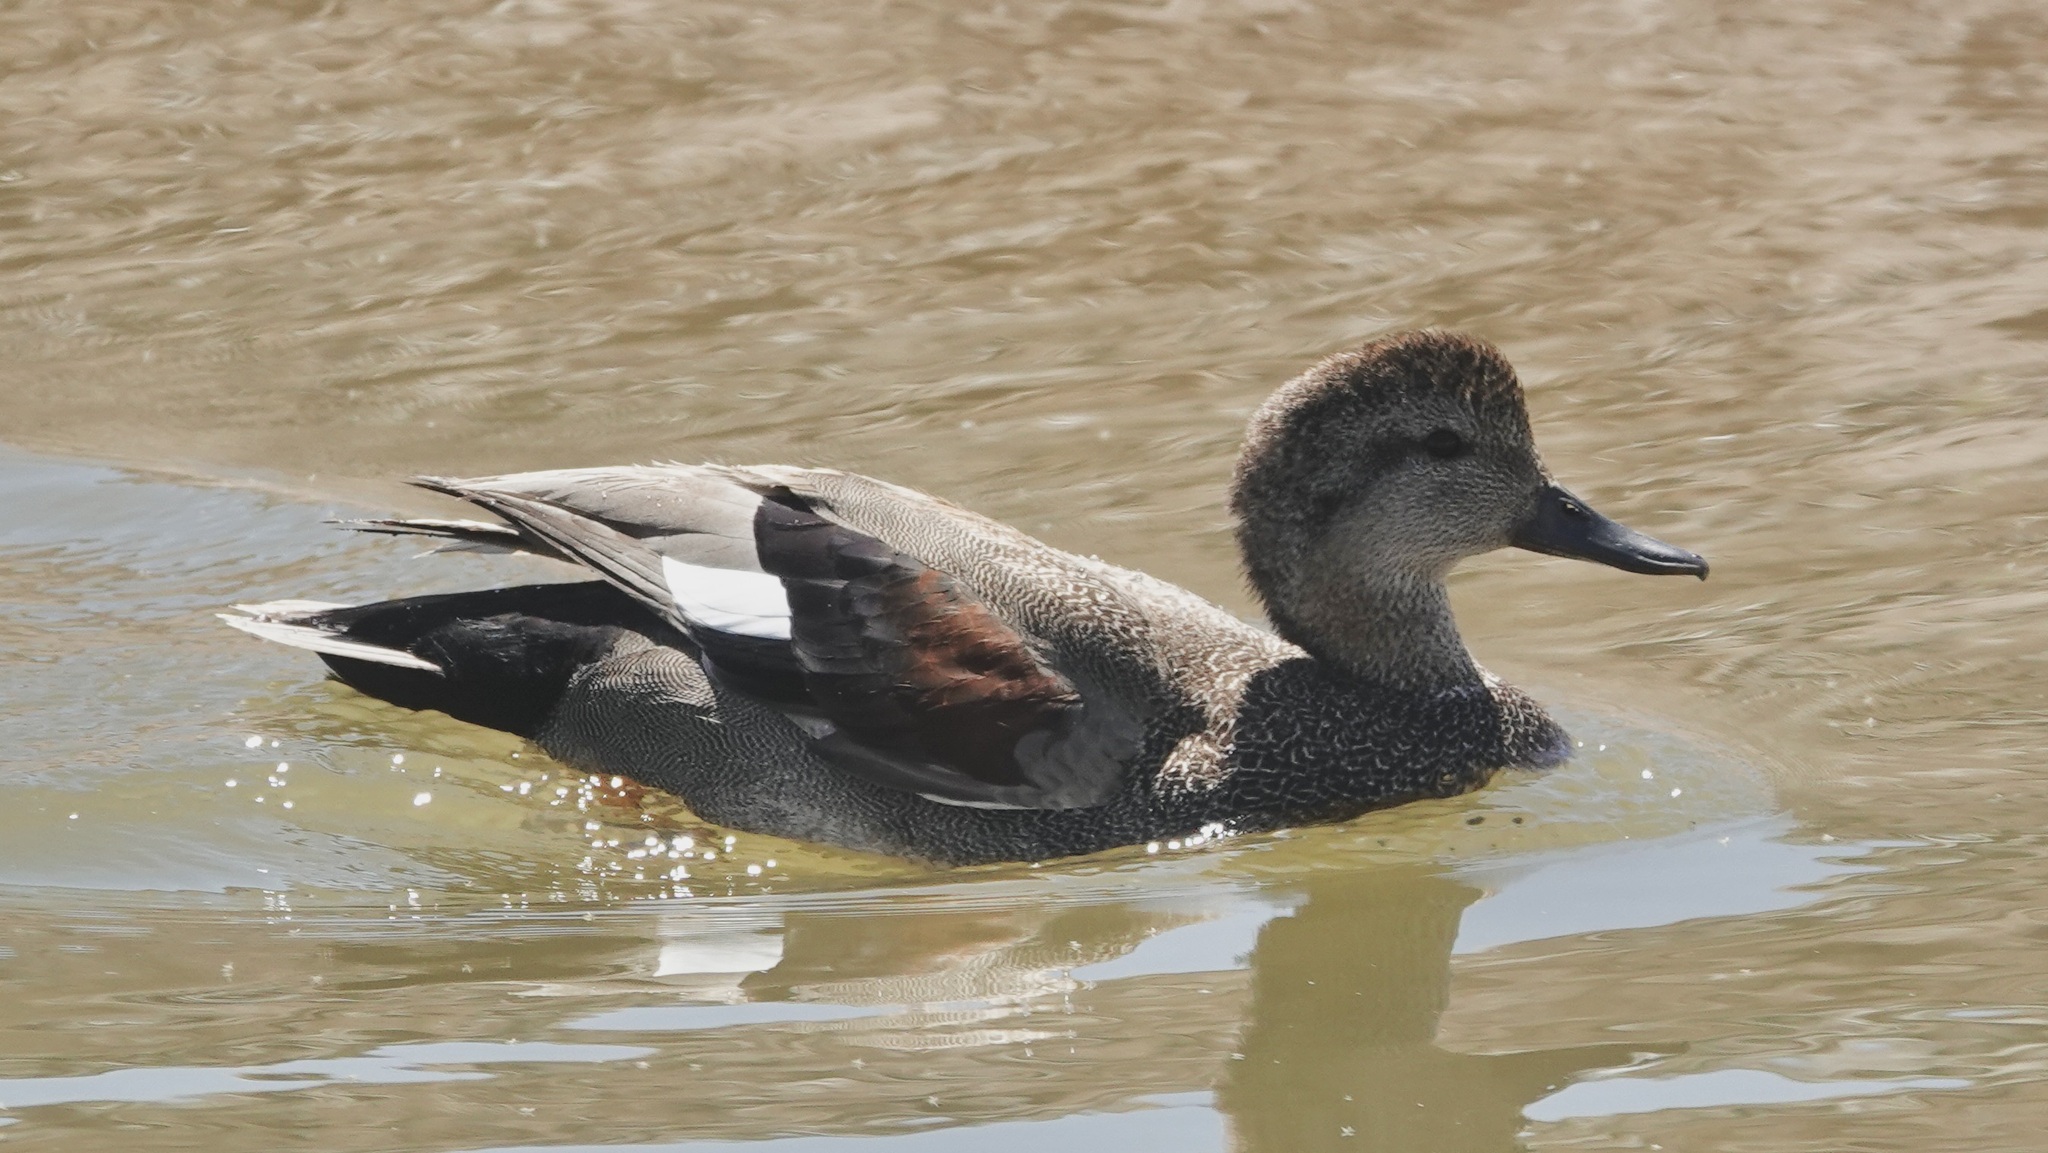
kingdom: Animalia
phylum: Chordata
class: Aves
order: Anseriformes
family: Anatidae
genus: Mareca
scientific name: Mareca strepera
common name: Gadwall
